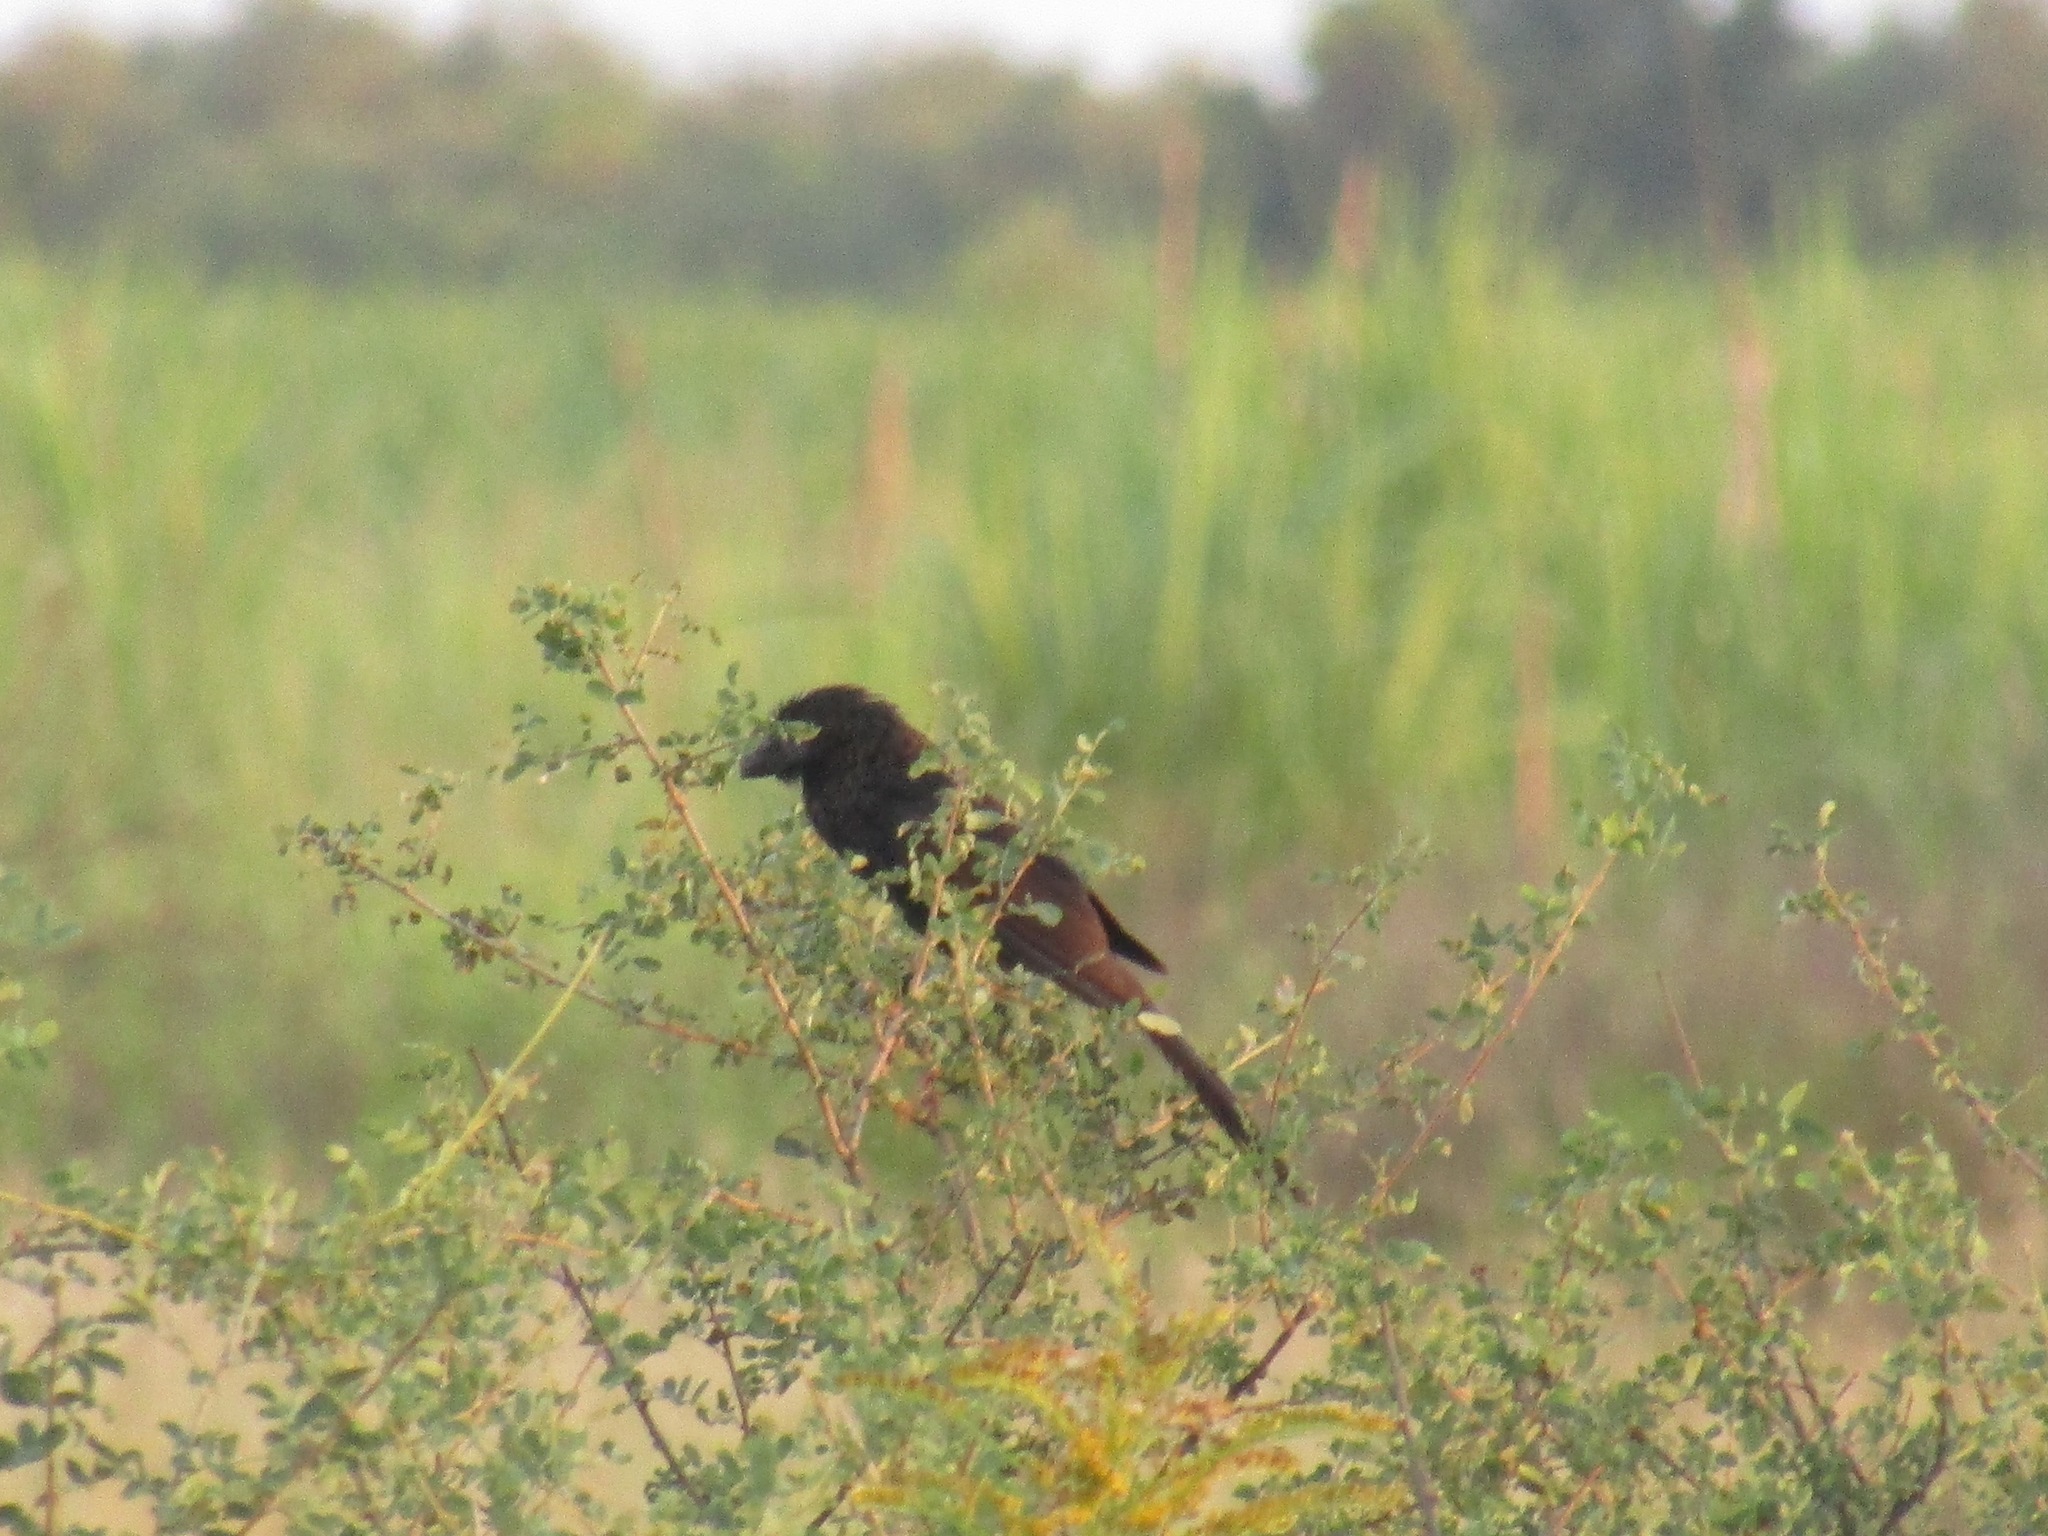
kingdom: Animalia
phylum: Chordata
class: Aves
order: Cuculiformes
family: Cuculidae
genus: Crotophaga
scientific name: Crotophaga ani
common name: Smooth-billed ani
